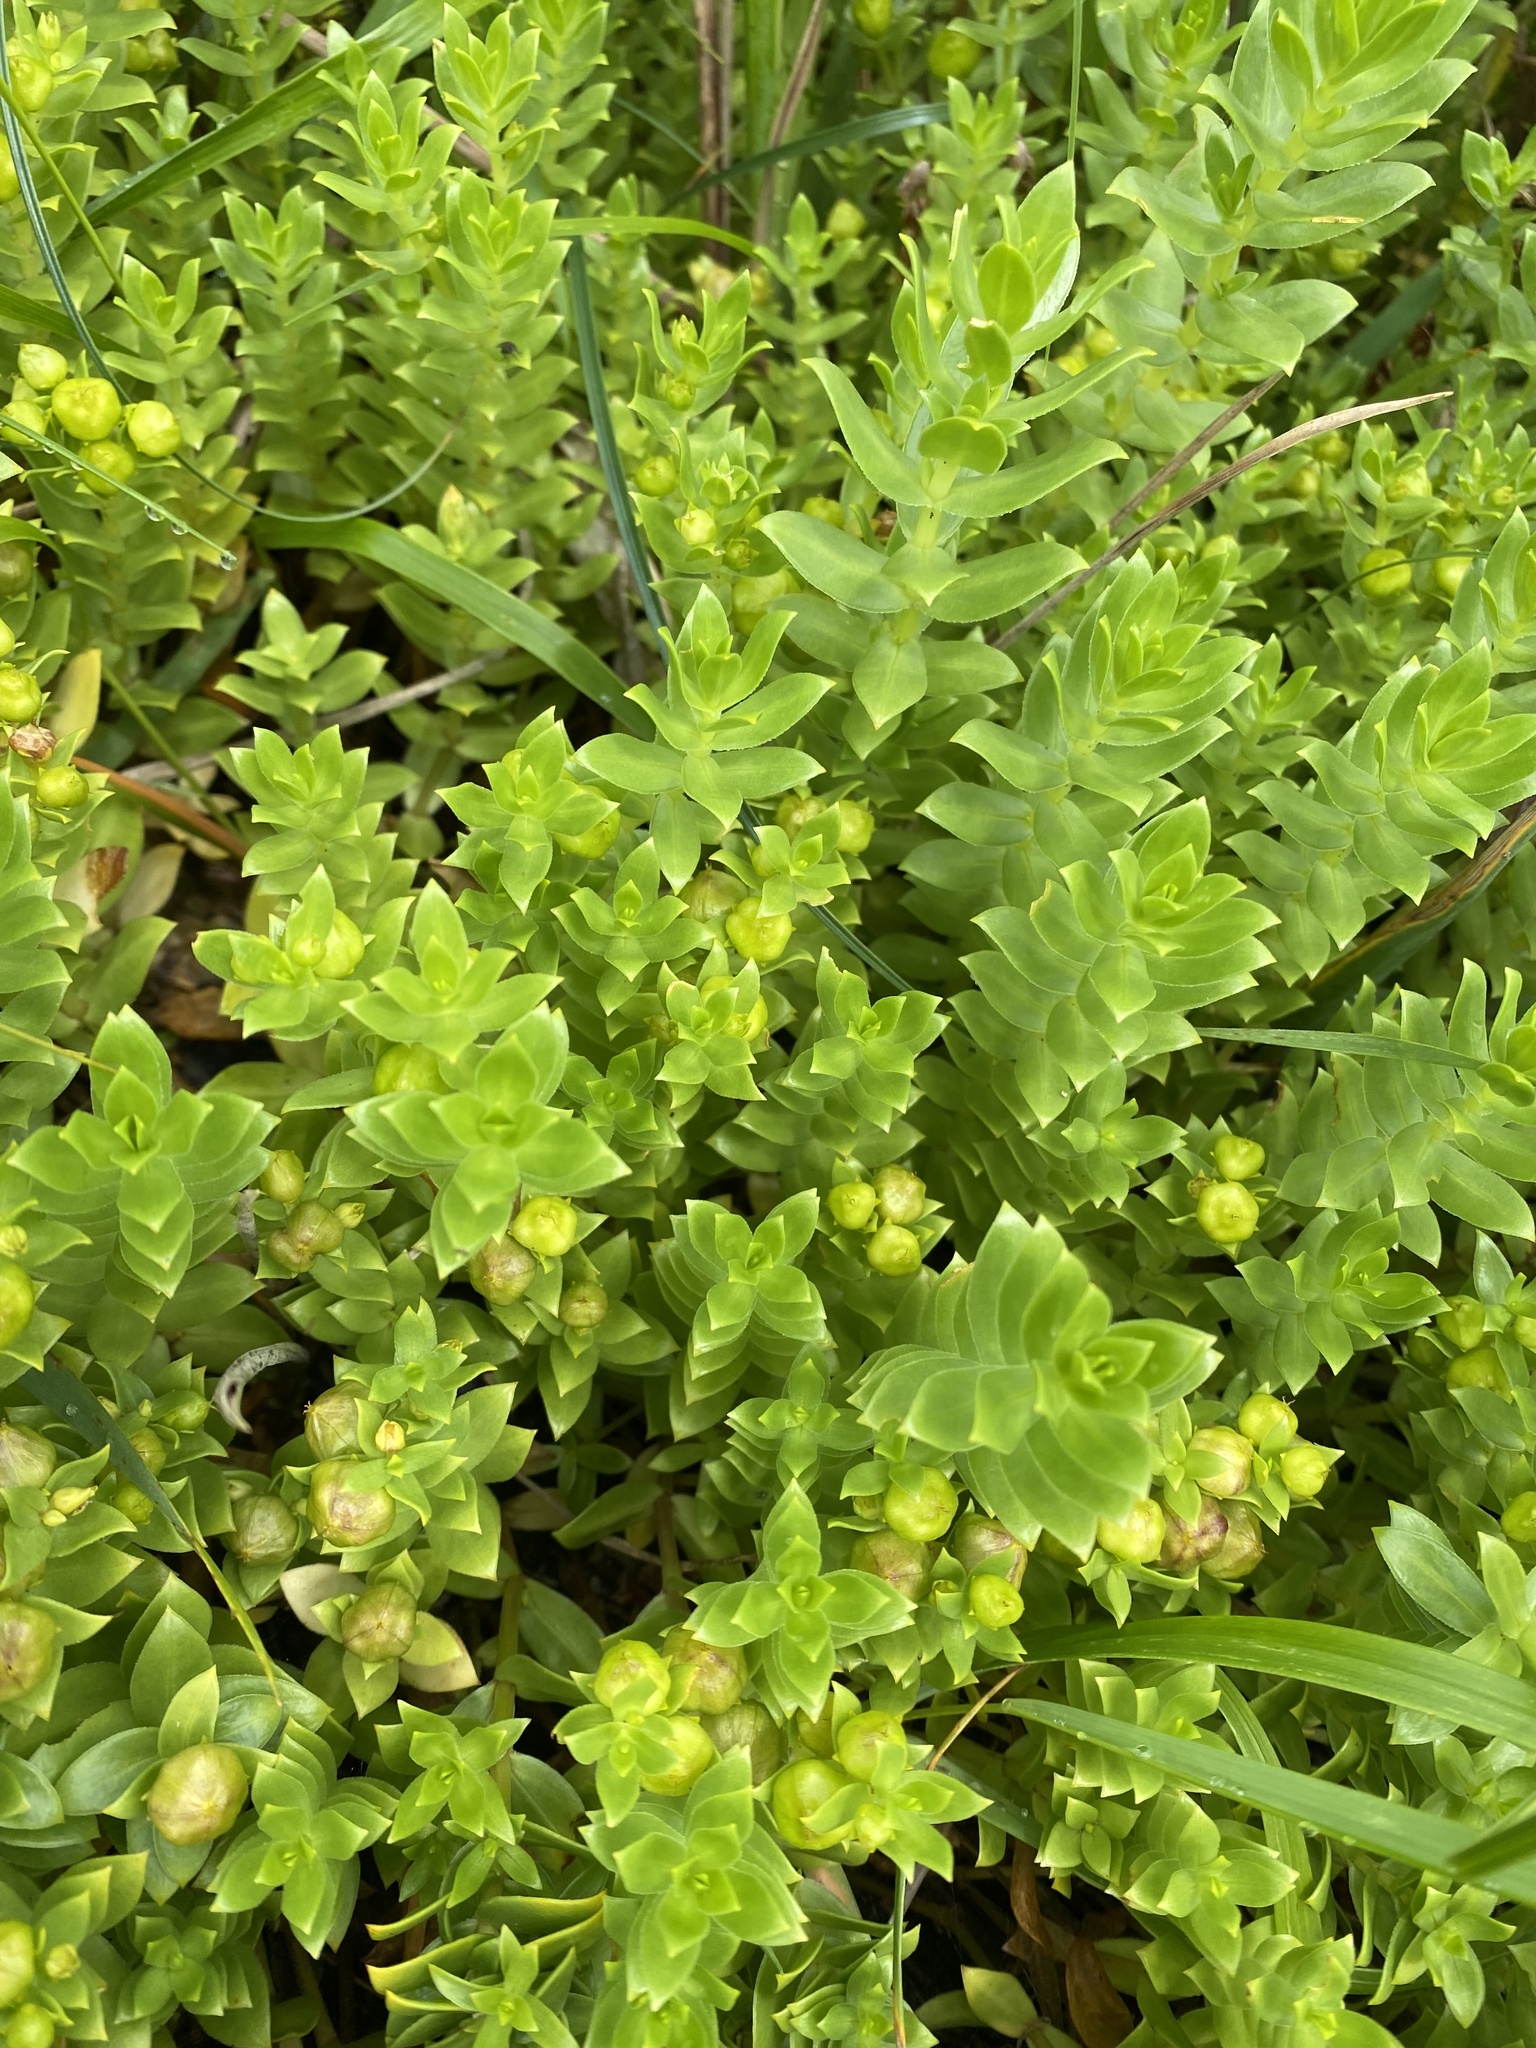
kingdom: Plantae
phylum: Tracheophyta
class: Magnoliopsida
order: Caryophyllales
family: Caryophyllaceae
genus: Honckenya
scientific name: Honckenya peploides
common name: Sea sandwort
